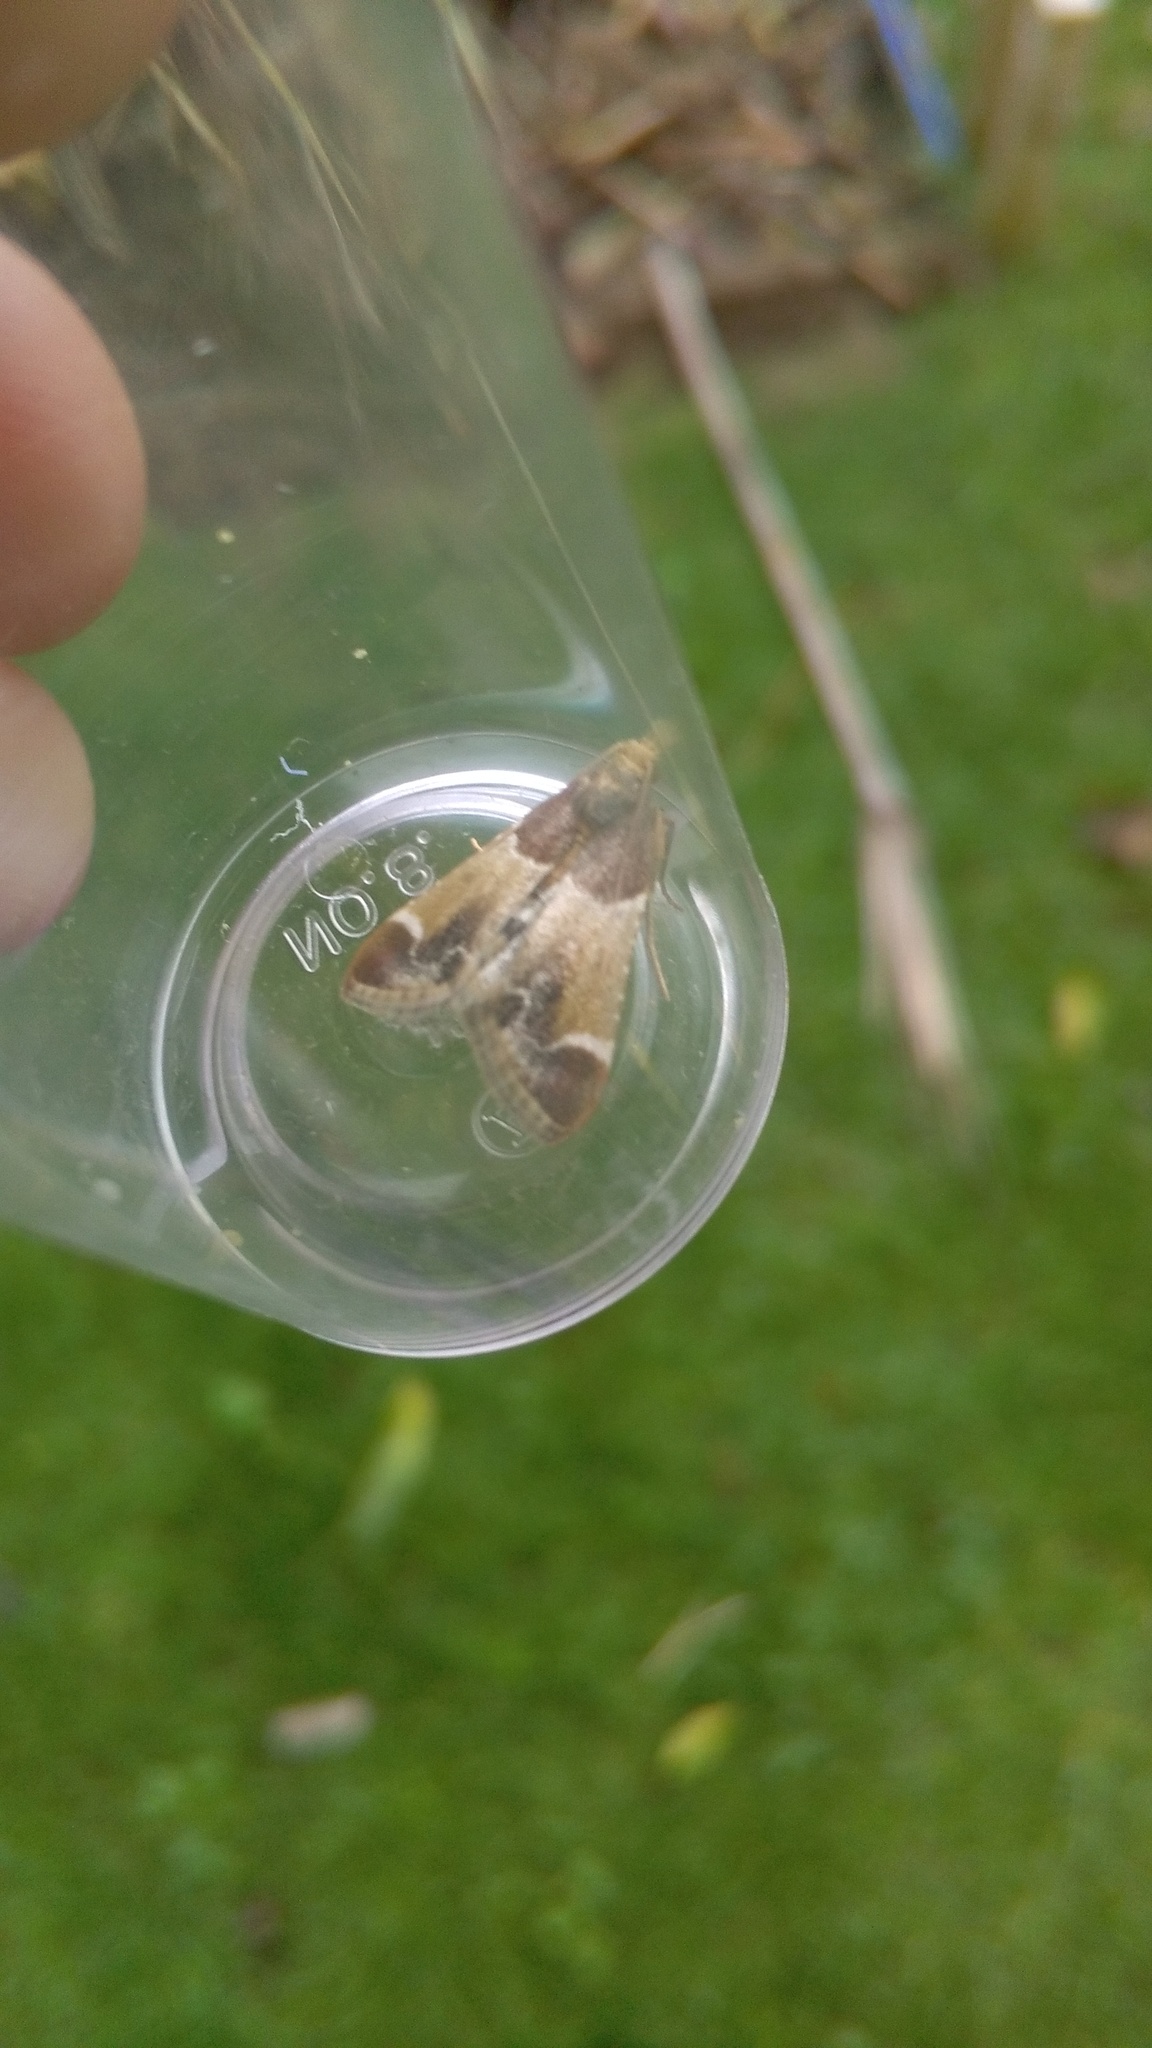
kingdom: Animalia
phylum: Arthropoda
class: Insecta
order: Lepidoptera
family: Pyralidae
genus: Pyralis
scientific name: Pyralis farinalis
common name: Meal moth
